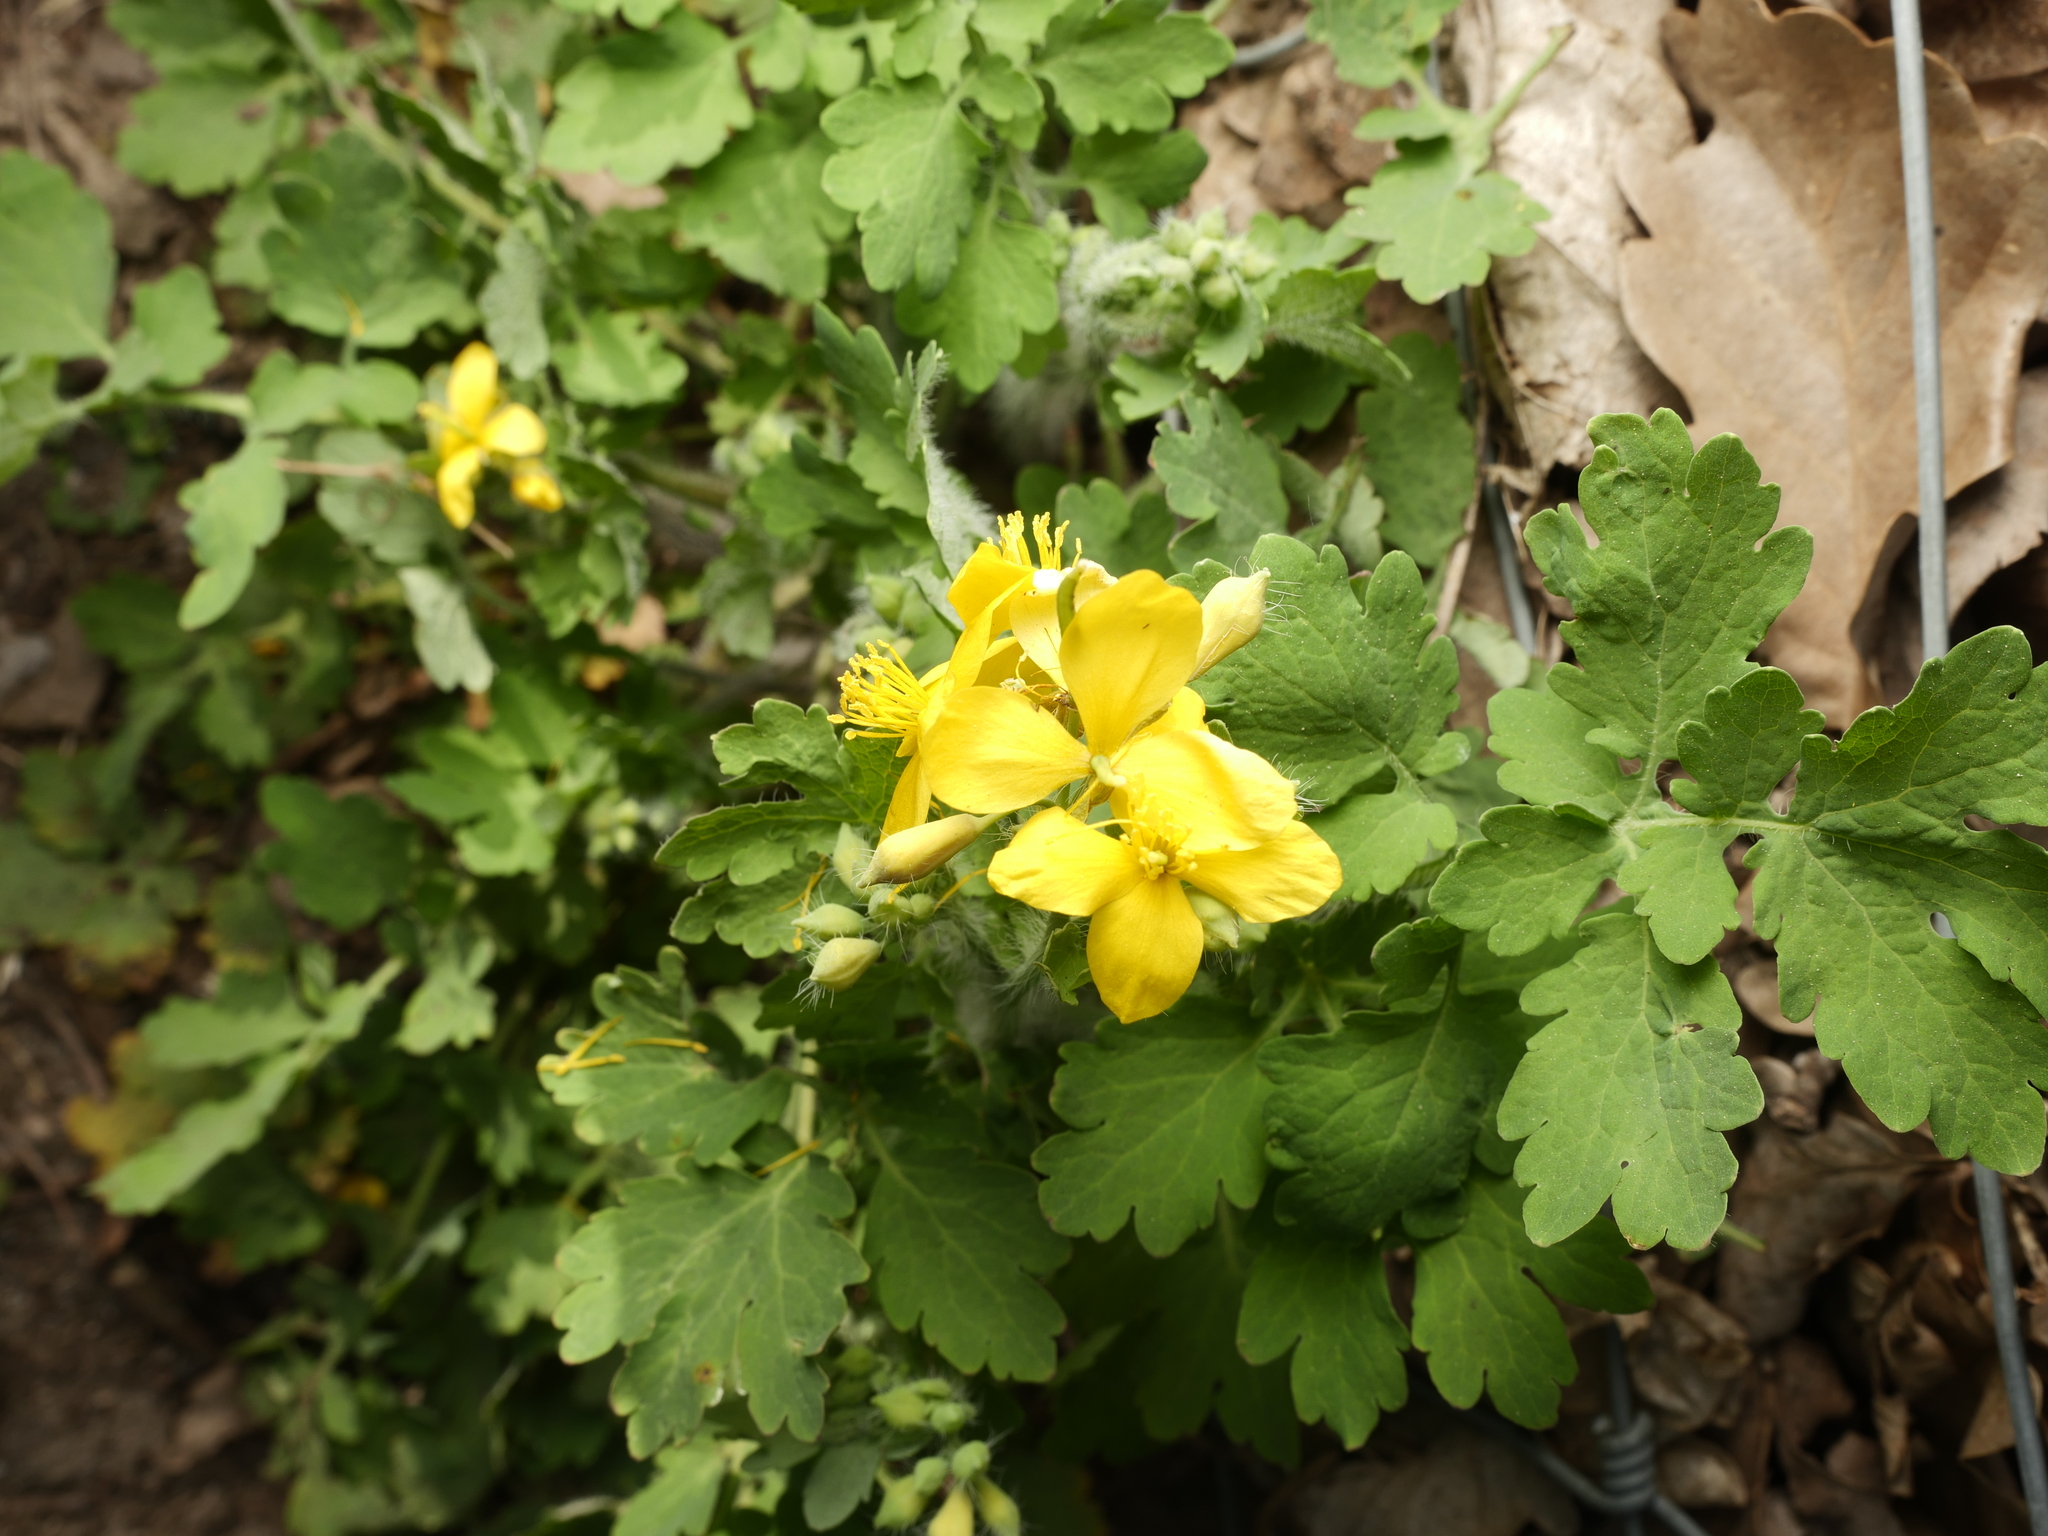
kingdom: Plantae
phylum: Tracheophyta
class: Magnoliopsida
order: Ranunculales
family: Papaveraceae
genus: Chelidonium
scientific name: Chelidonium majus
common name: Greater celandine
